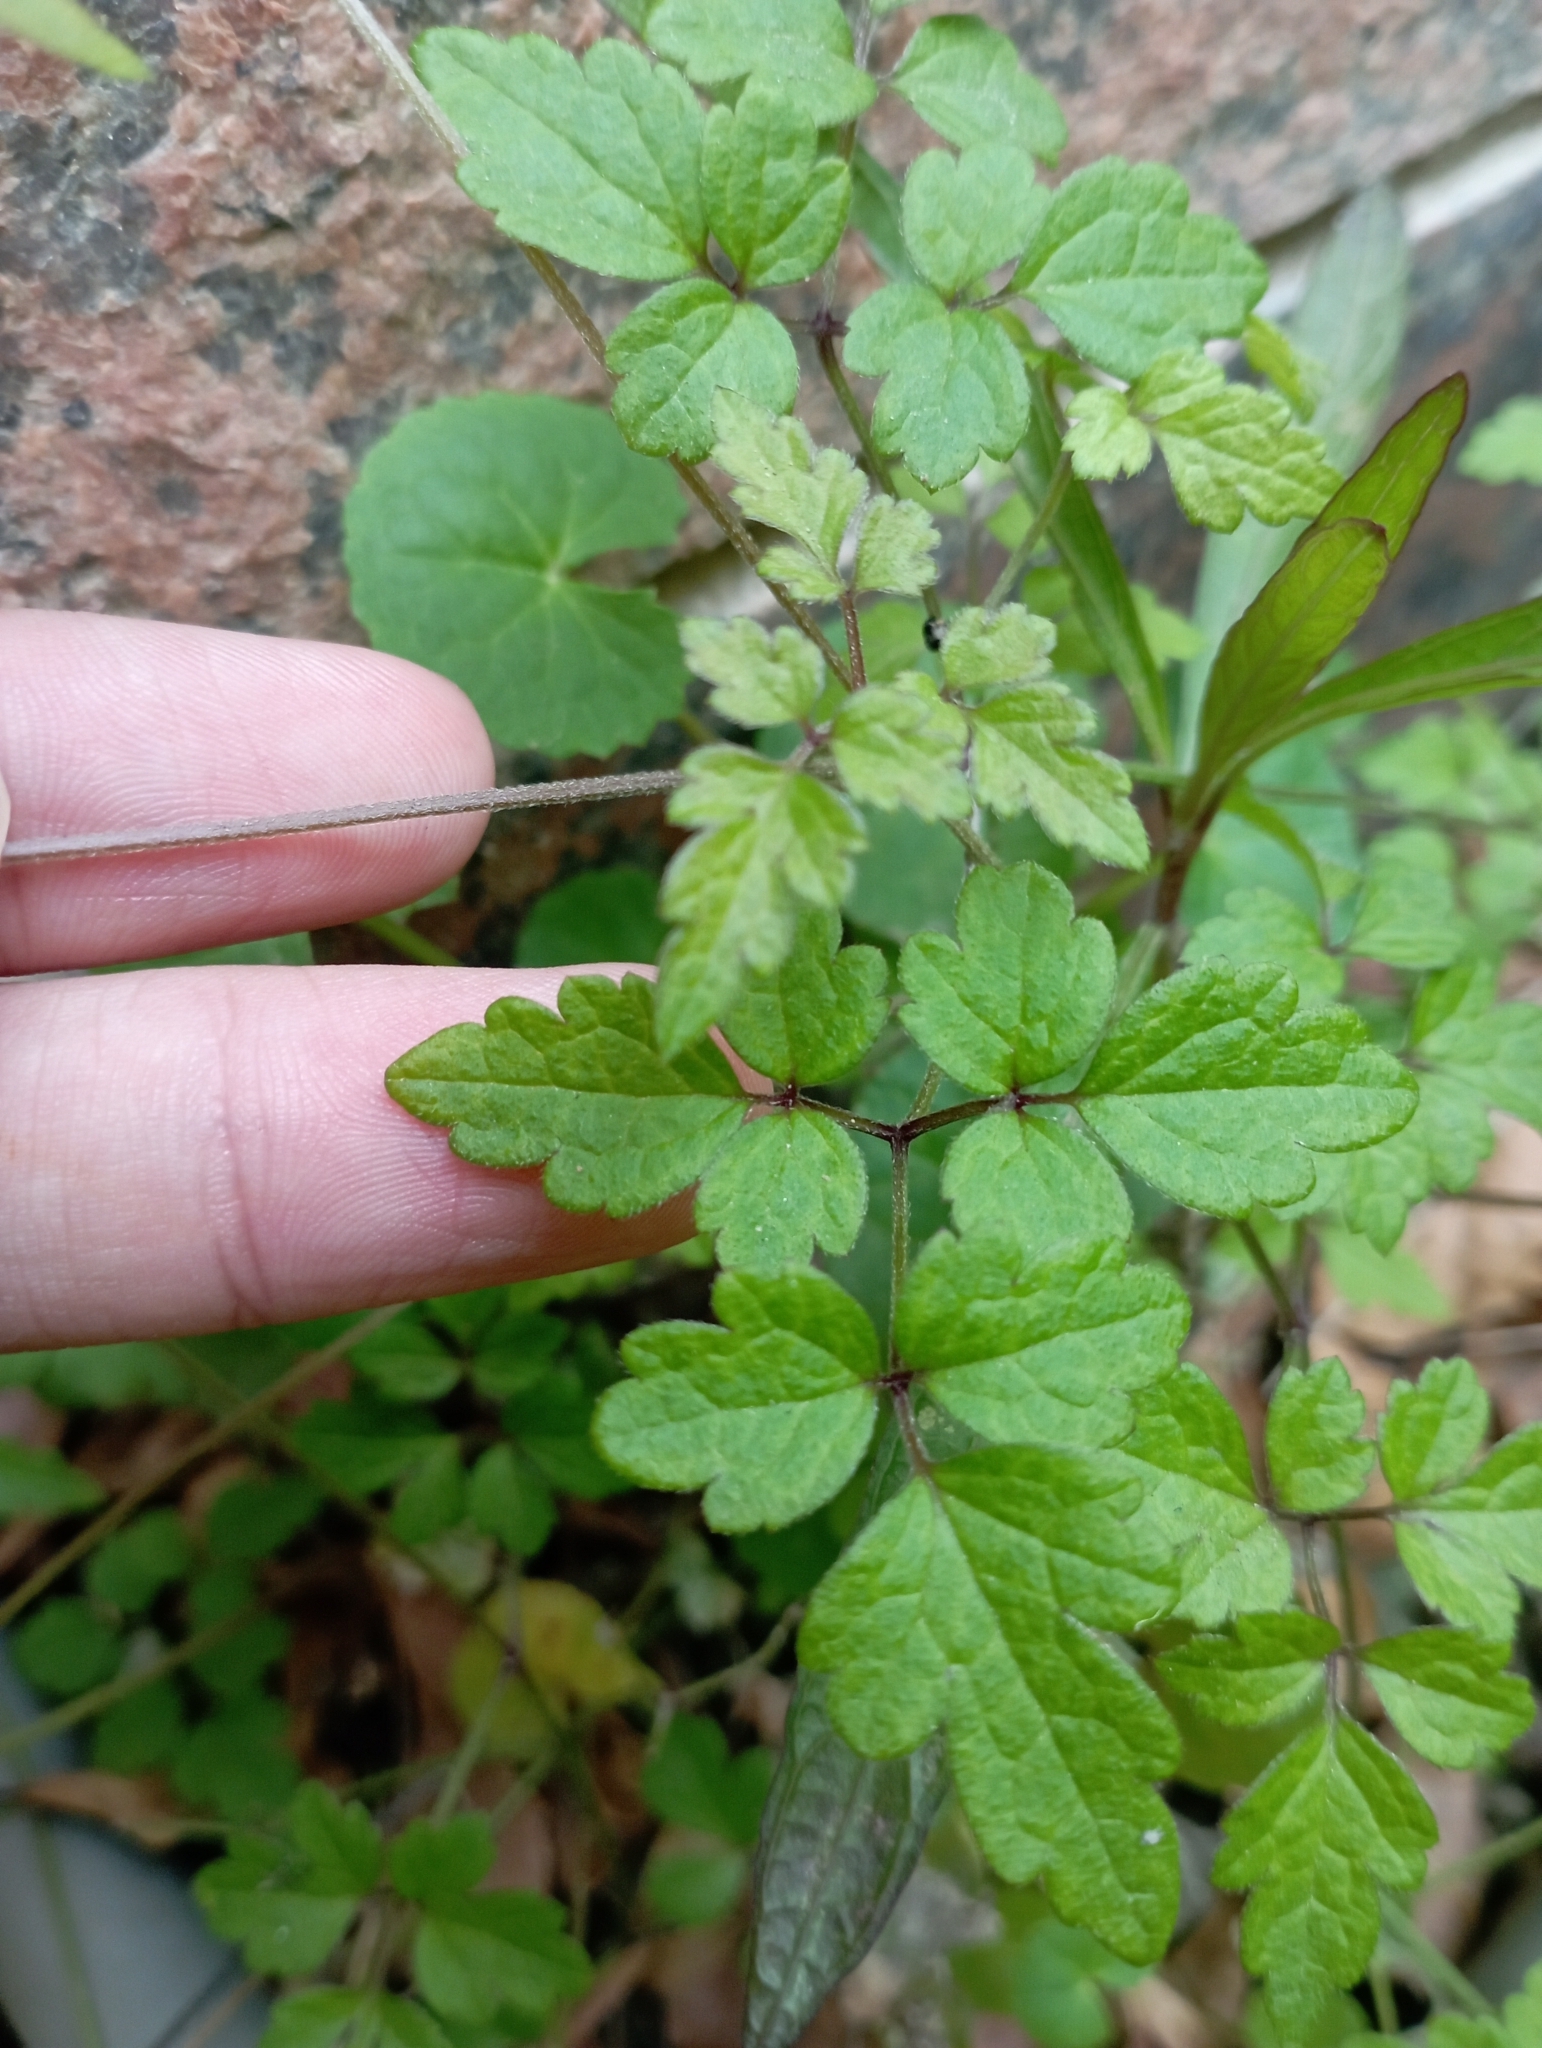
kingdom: Plantae
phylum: Tracheophyta
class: Magnoliopsida
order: Ranunculales
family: Ranunculaceae
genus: Clematis
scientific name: Clematis grata
